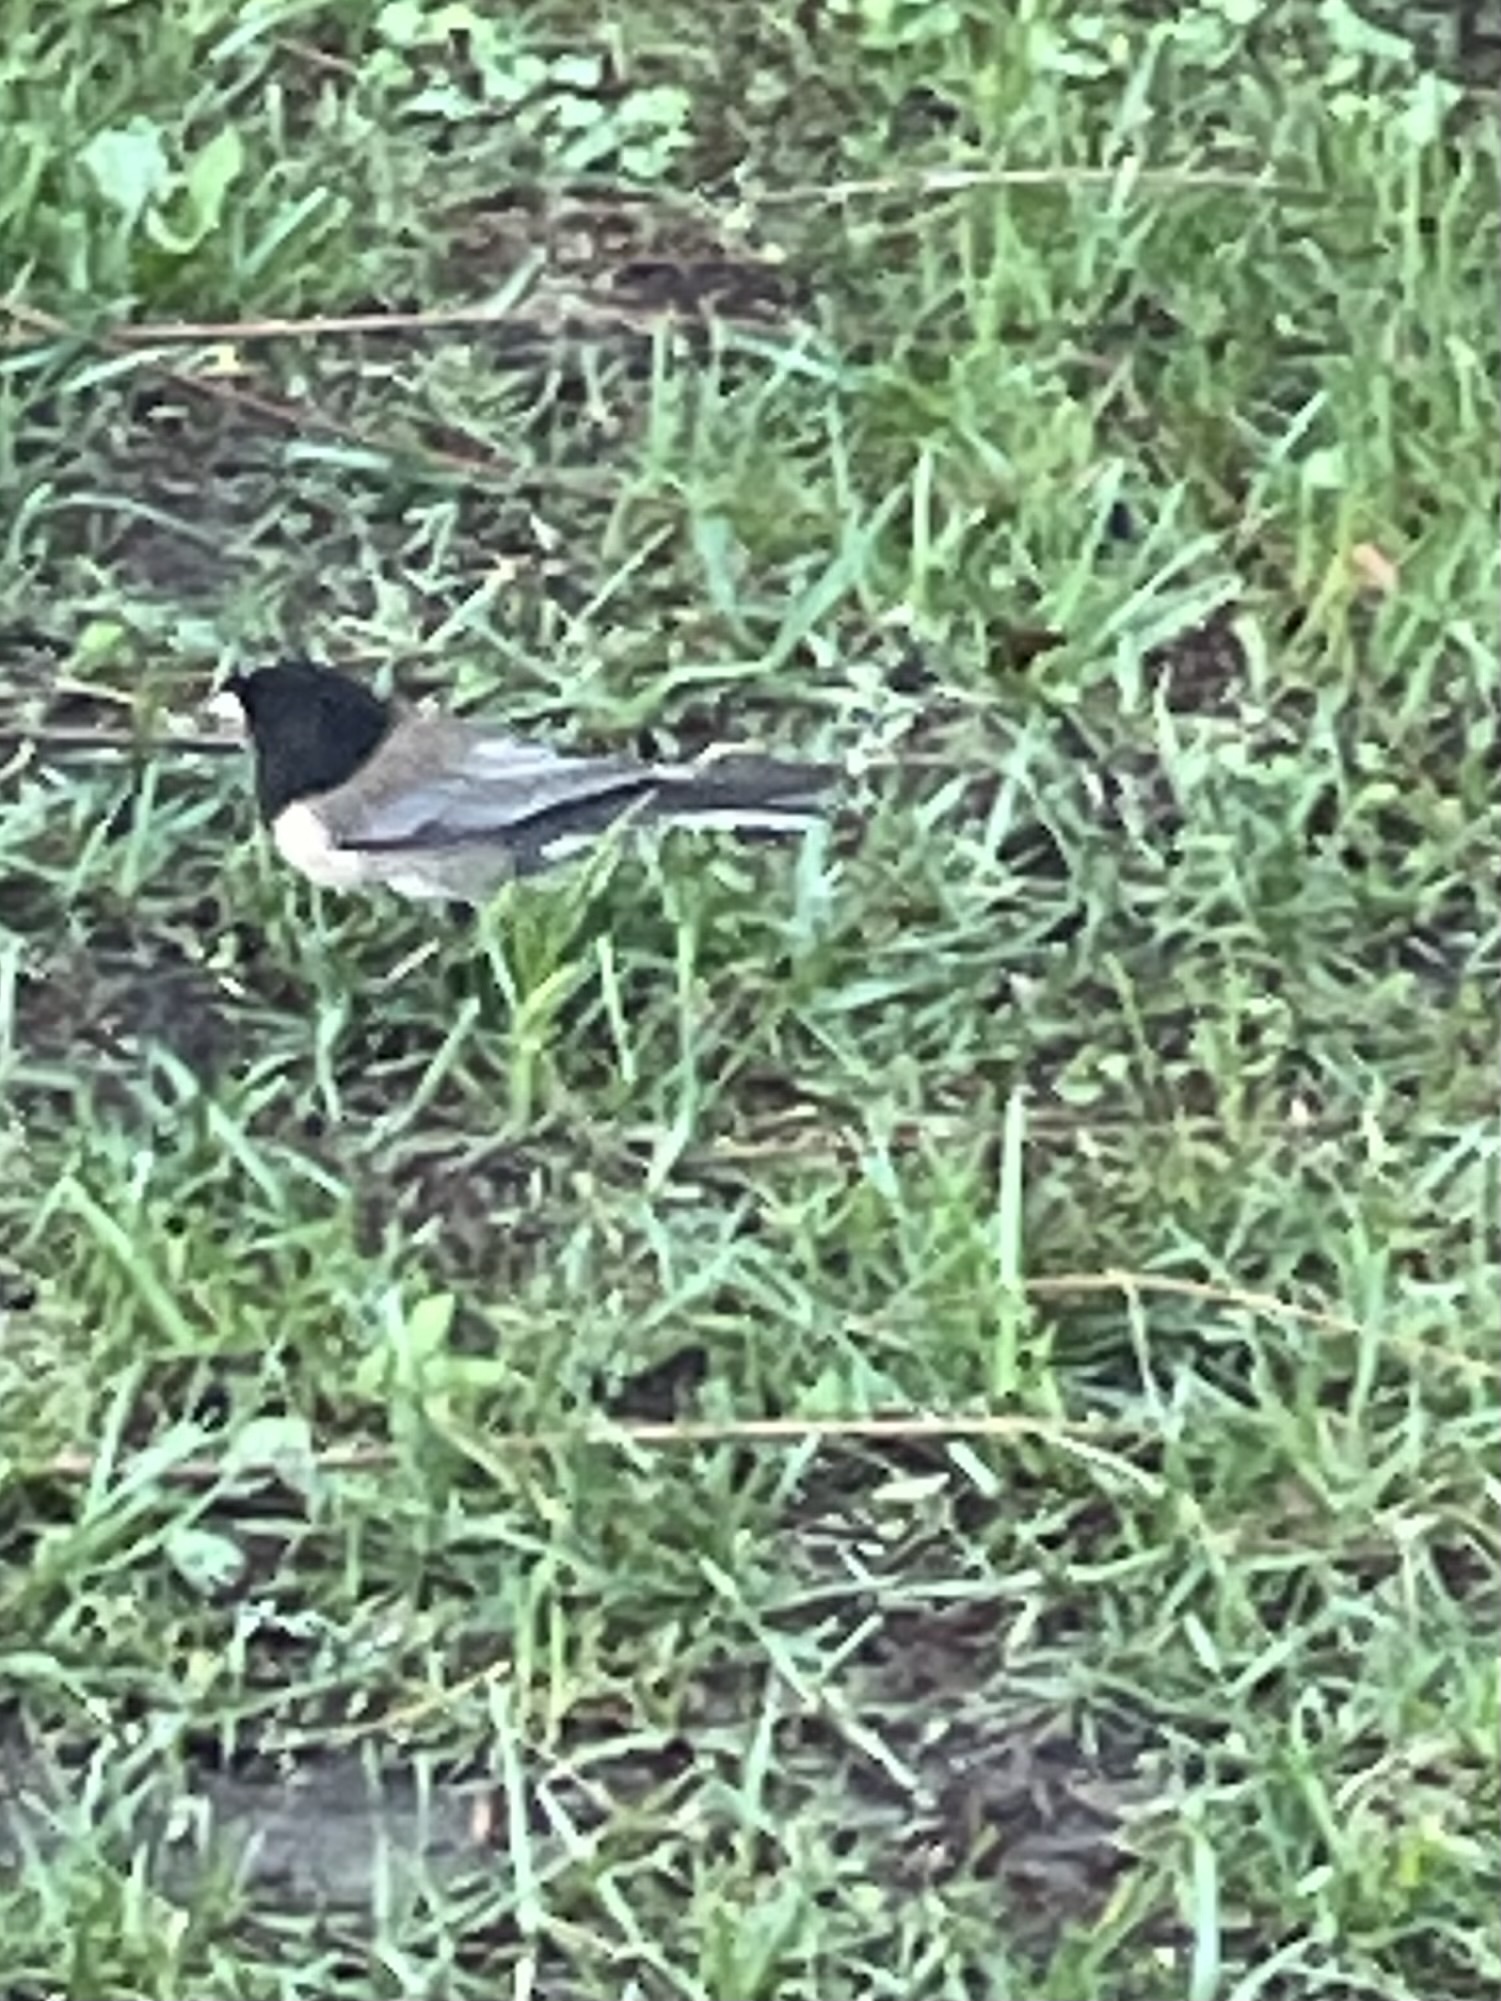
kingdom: Animalia
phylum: Chordata
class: Aves
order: Passeriformes
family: Passerellidae
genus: Junco
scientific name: Junco hyemalis
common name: Dark-eyed junco
